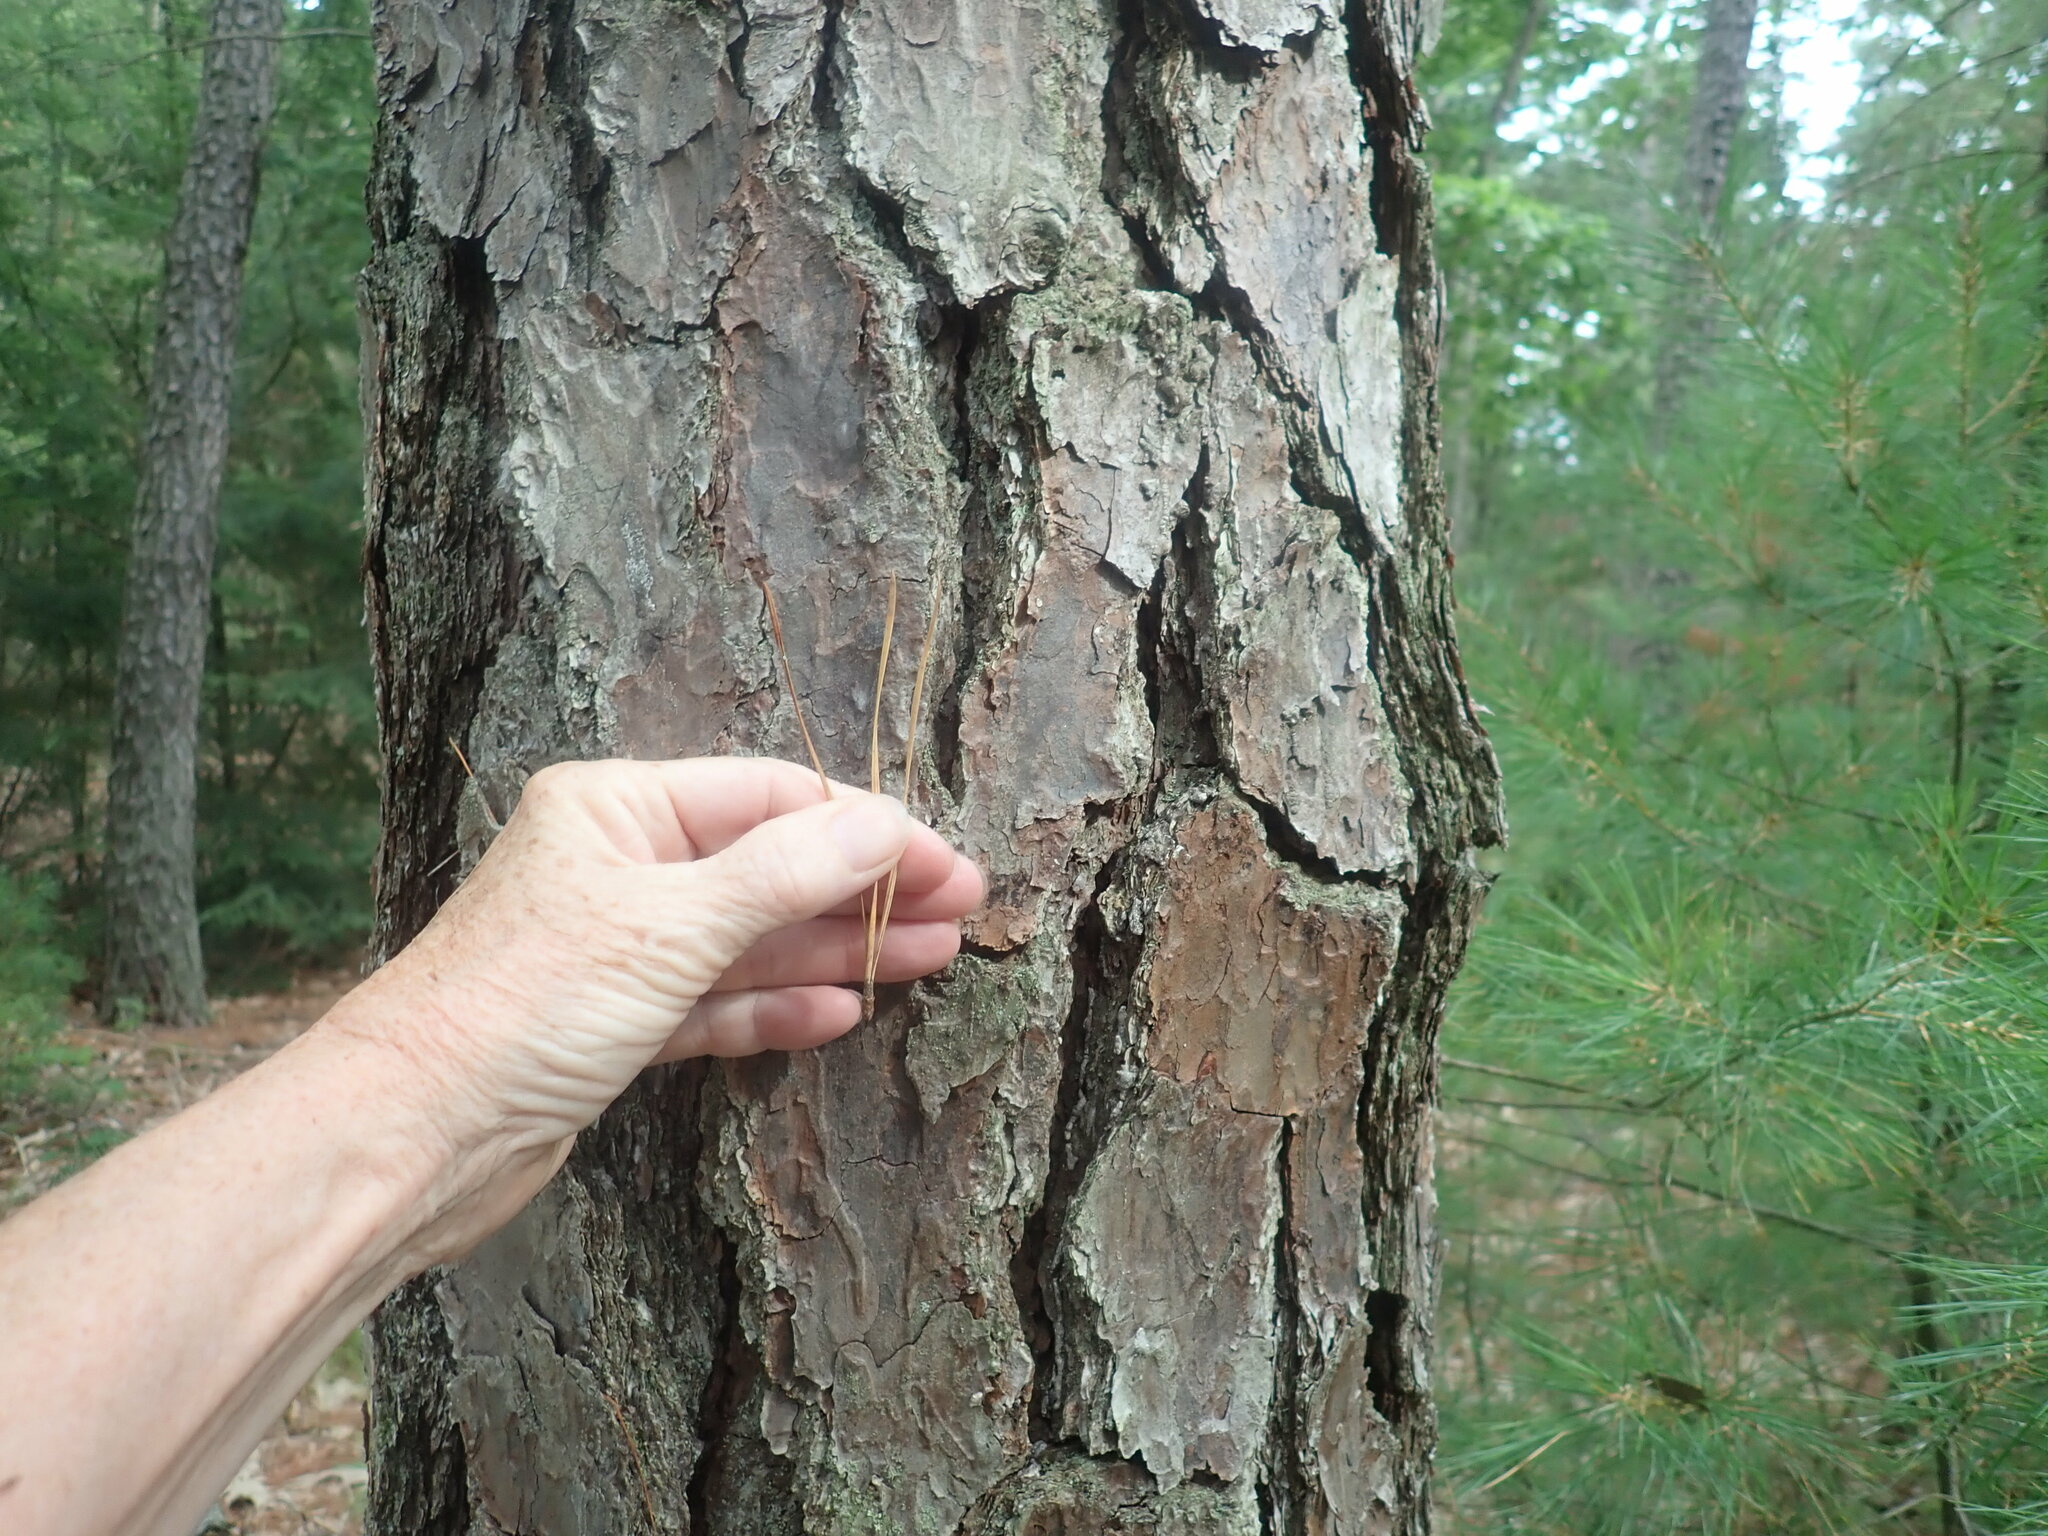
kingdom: Plantae
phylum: Tracheophyta
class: Pinopsida
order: Pinales
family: Pinaceae
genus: Pinus
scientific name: Pinus rigida
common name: Pitch pine
